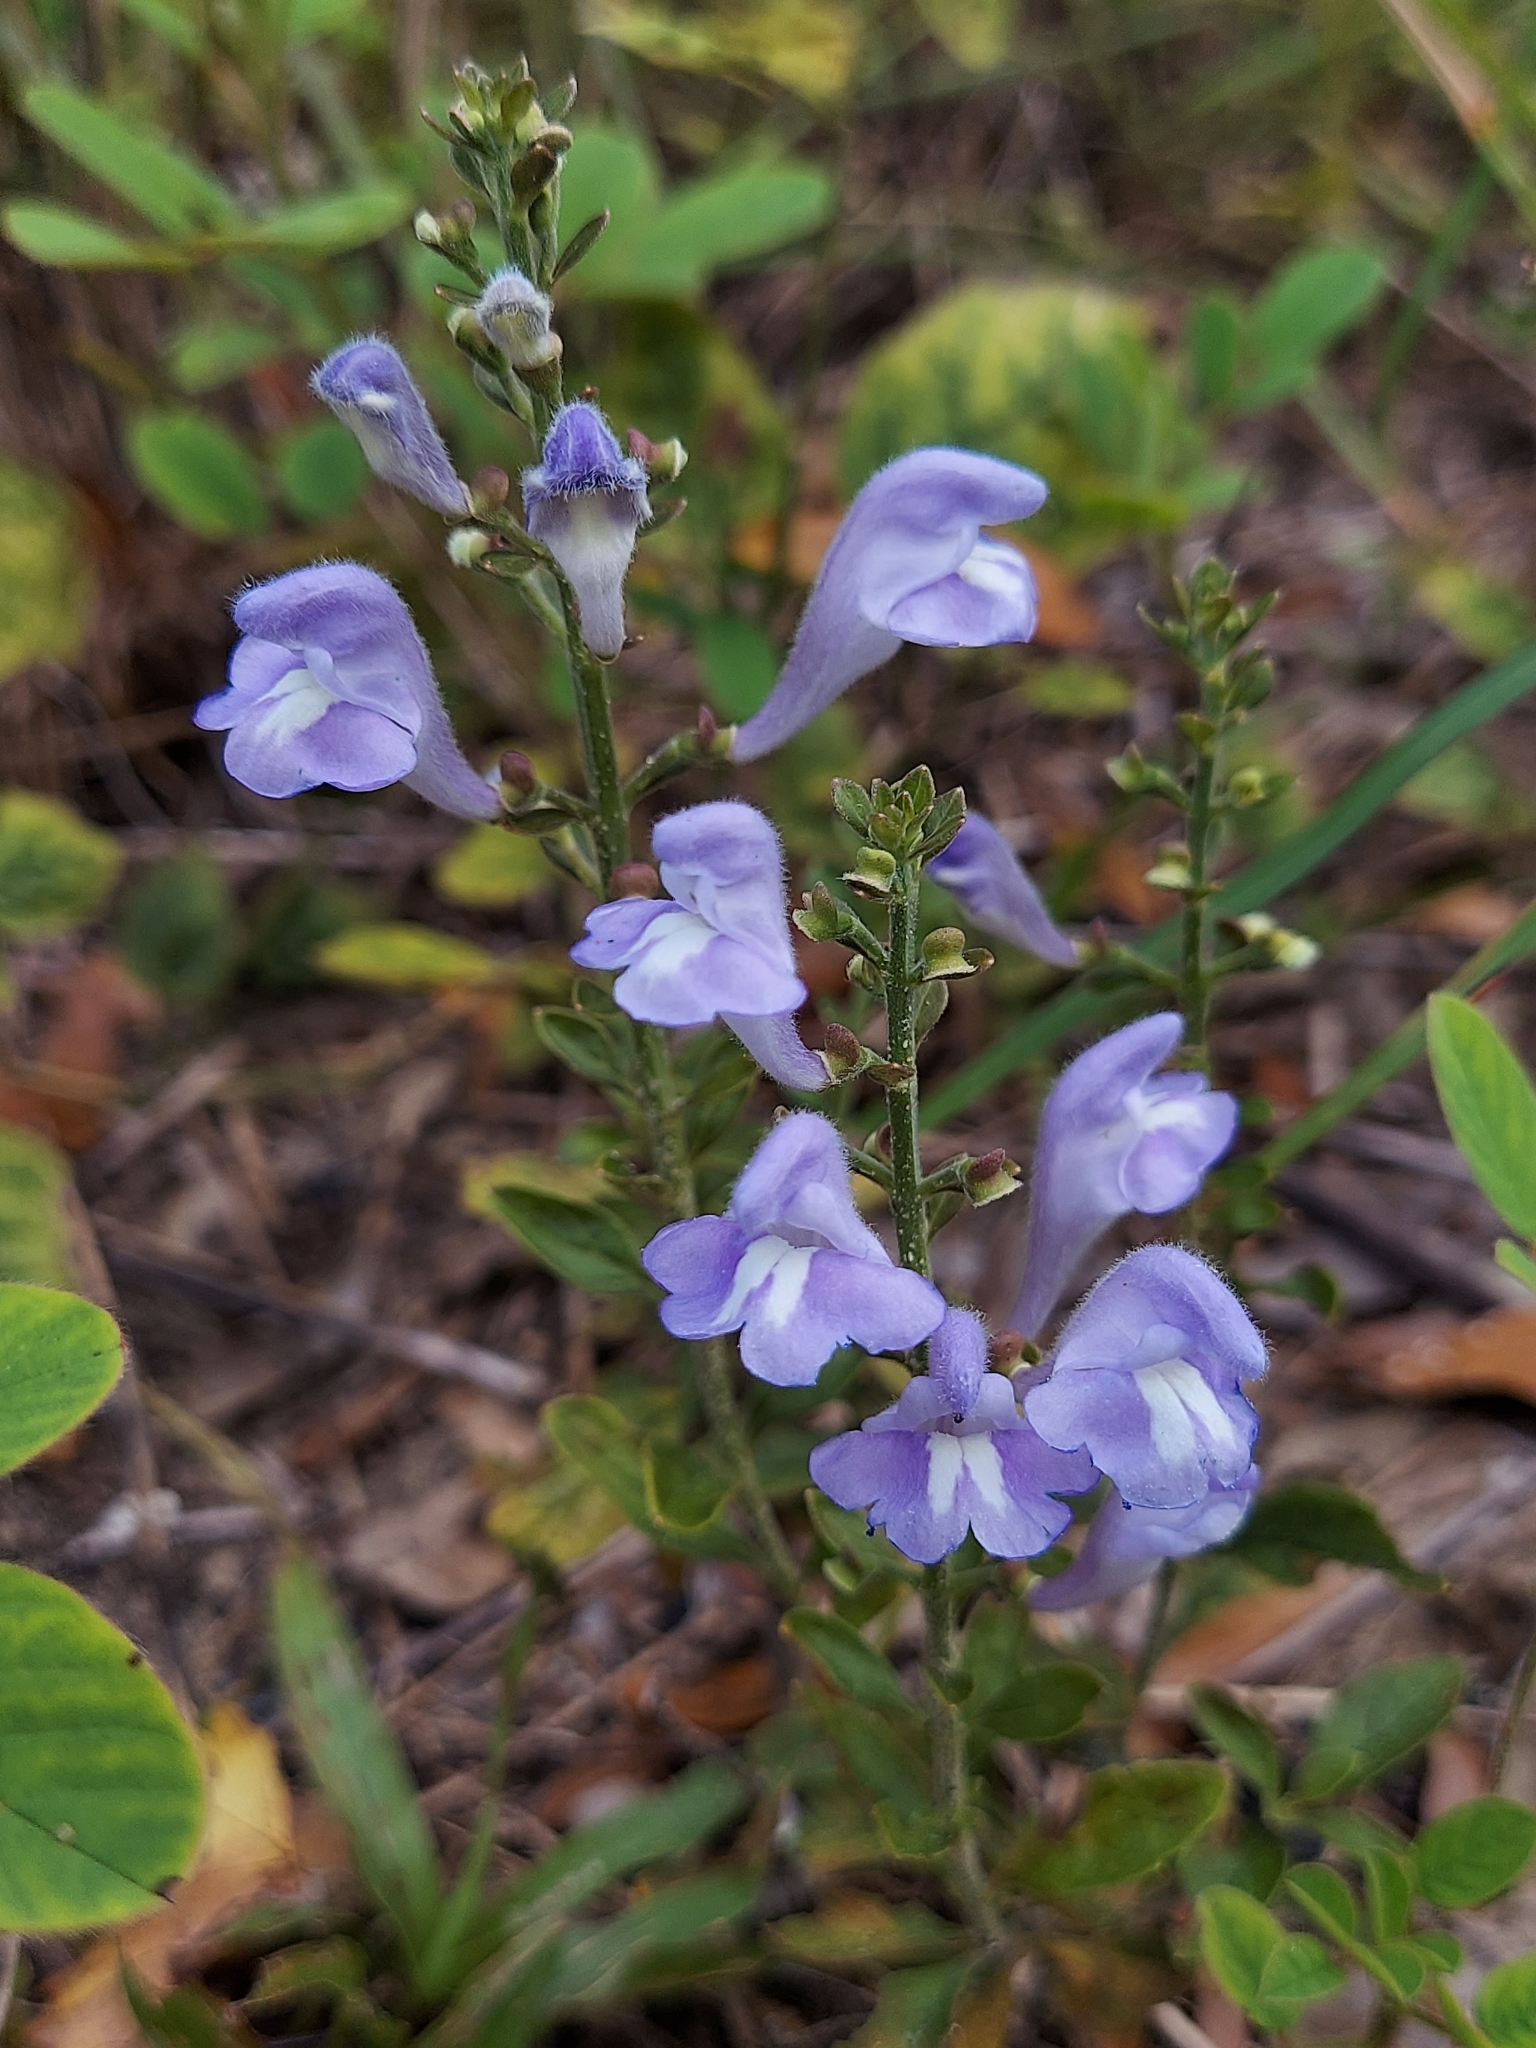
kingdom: Plantae
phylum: Tracheophyta
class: Magnoliopsida
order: Lamiales
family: Lamiaceae
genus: Scutellaria
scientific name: Scutellaria integrifolia
